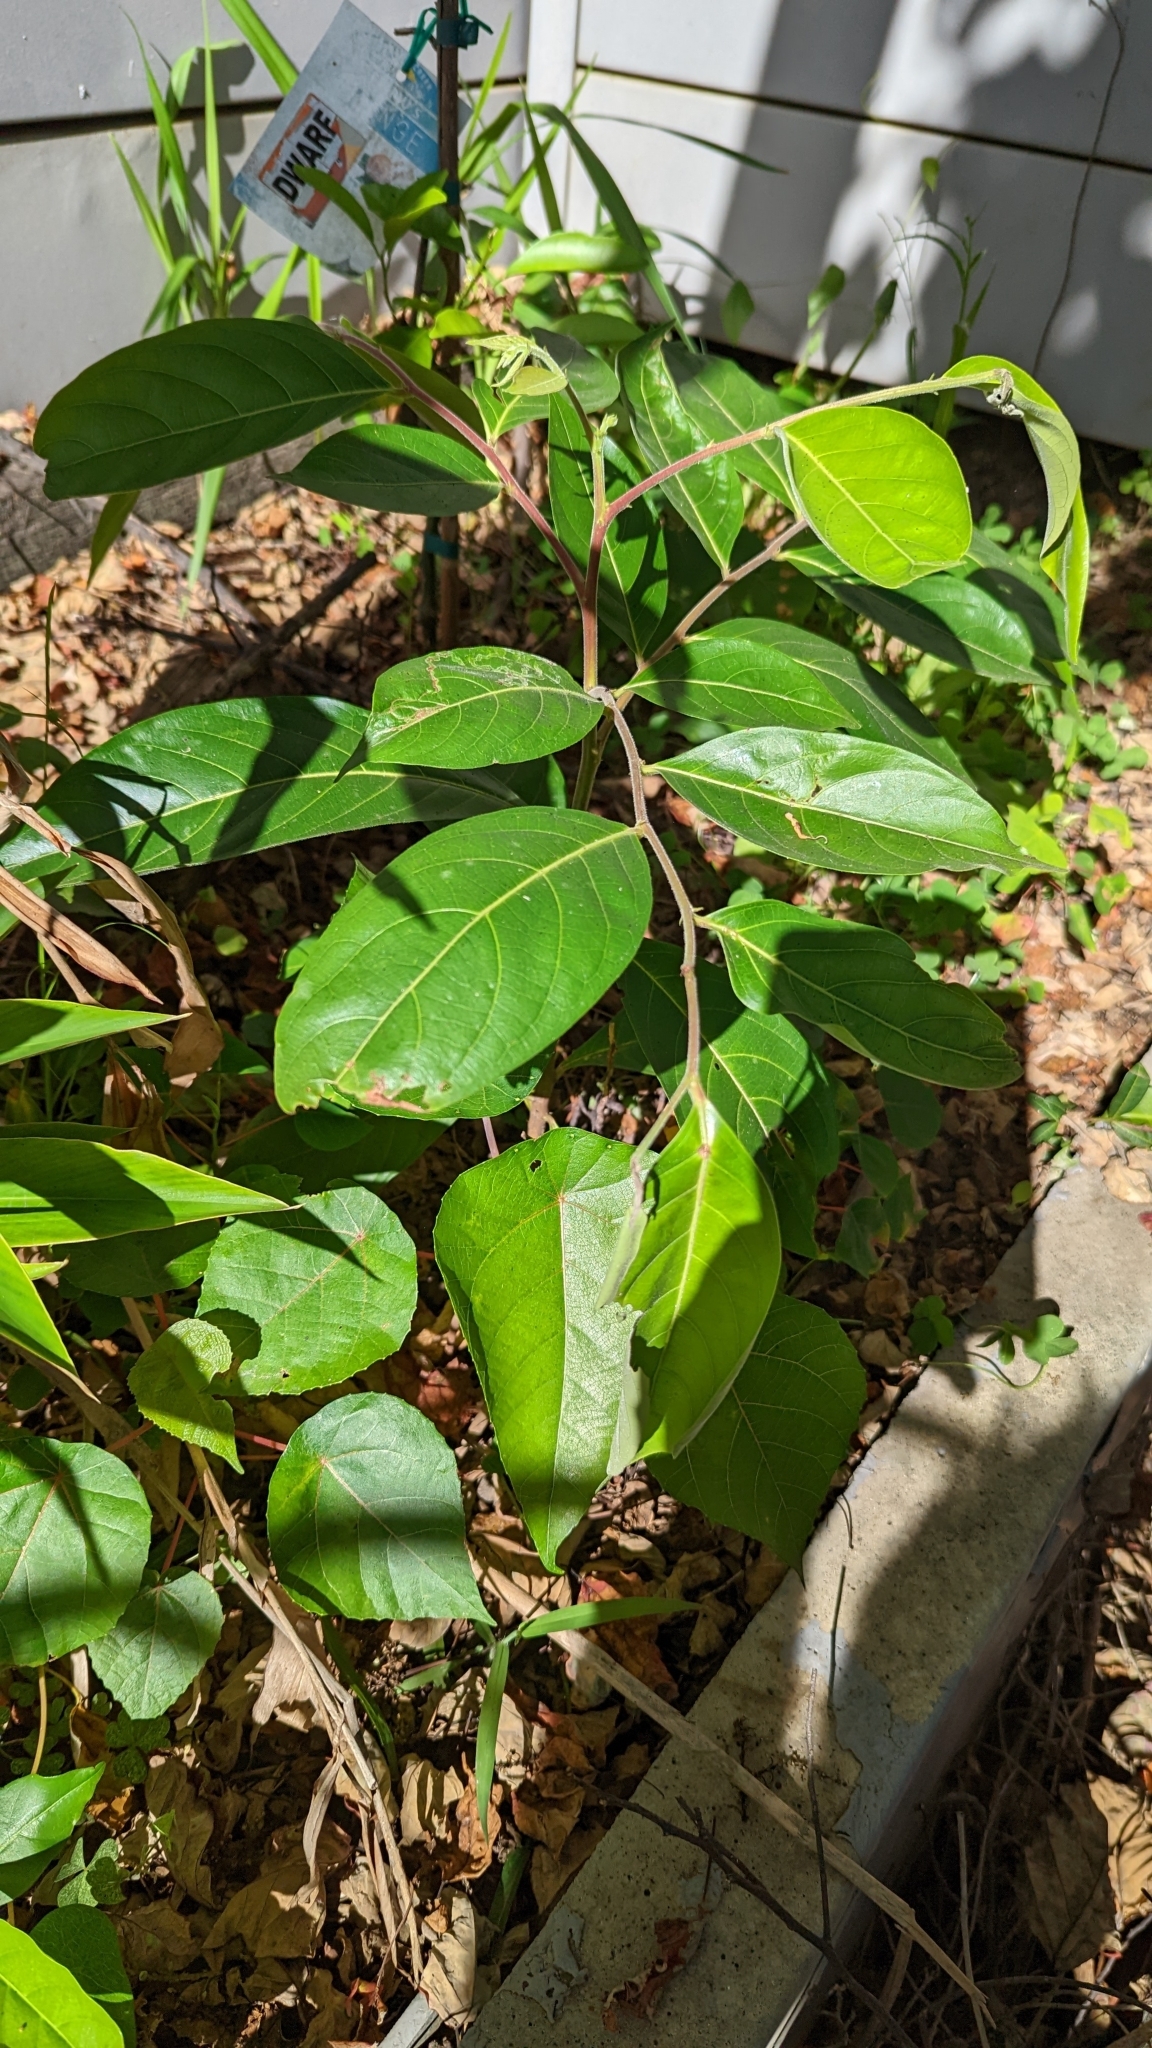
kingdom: Plantae
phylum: Tracheophyta
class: Magnoliopsida
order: Malpighiales
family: Phyllanthaceae
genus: Glochidion
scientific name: Glochidion zeylanicum
